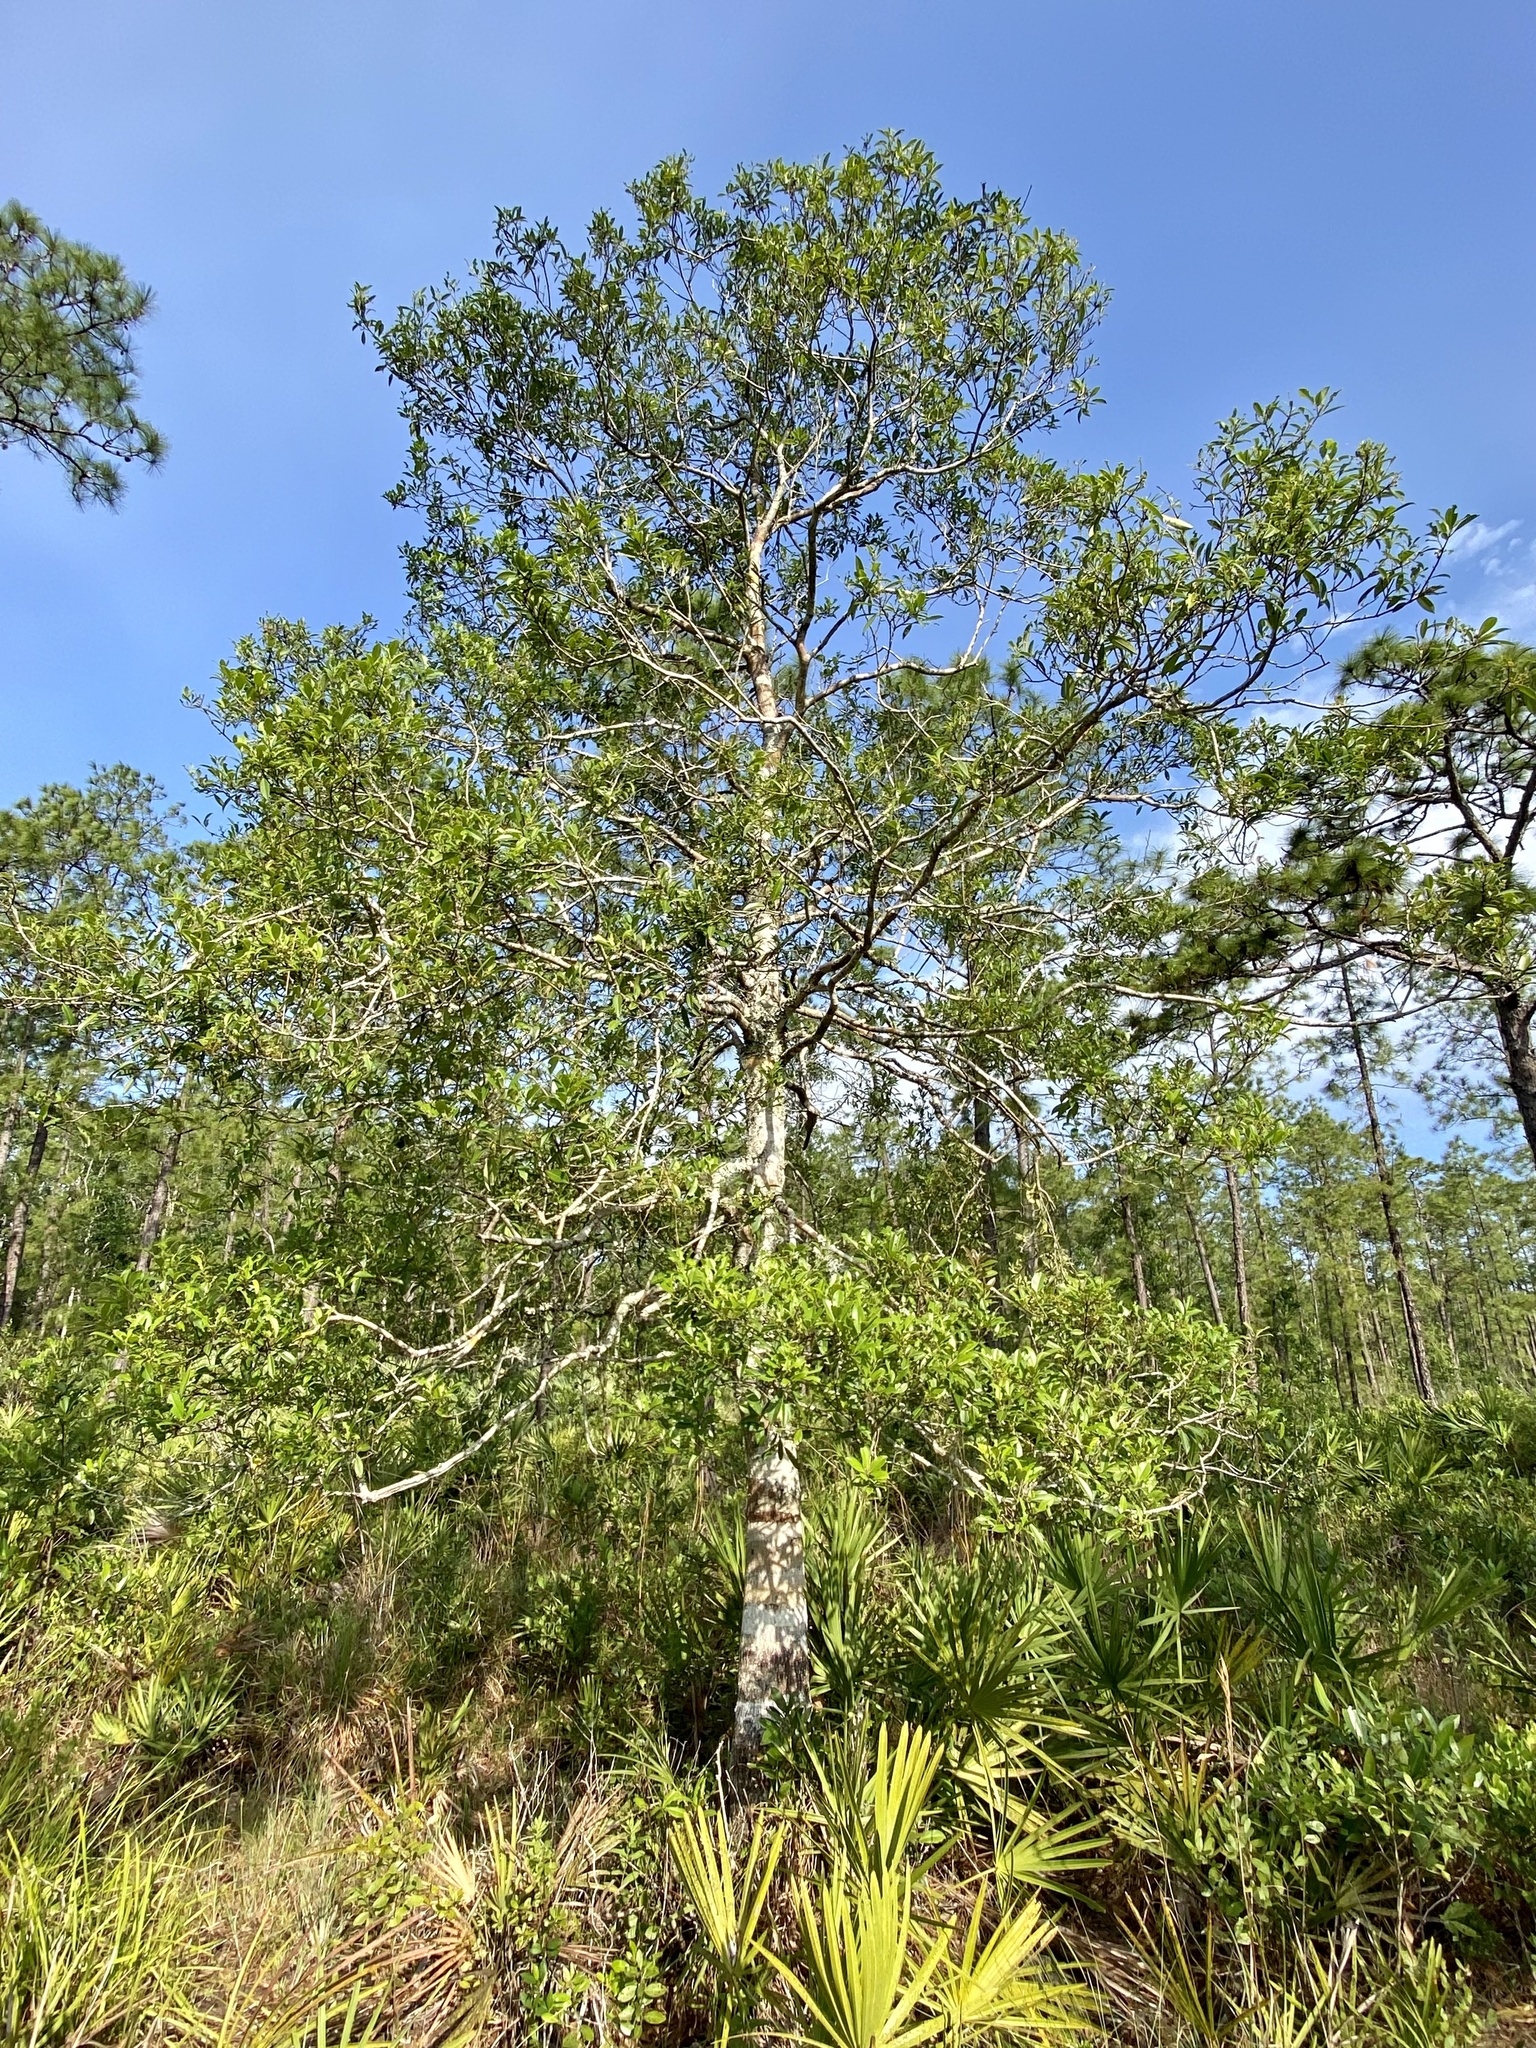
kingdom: Plantae
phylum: Tracheophyta
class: Magnoliopsida
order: Aquifoliales
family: Aquifoliaceae
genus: Ilex
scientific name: Ilex cassine
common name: Dahoon
